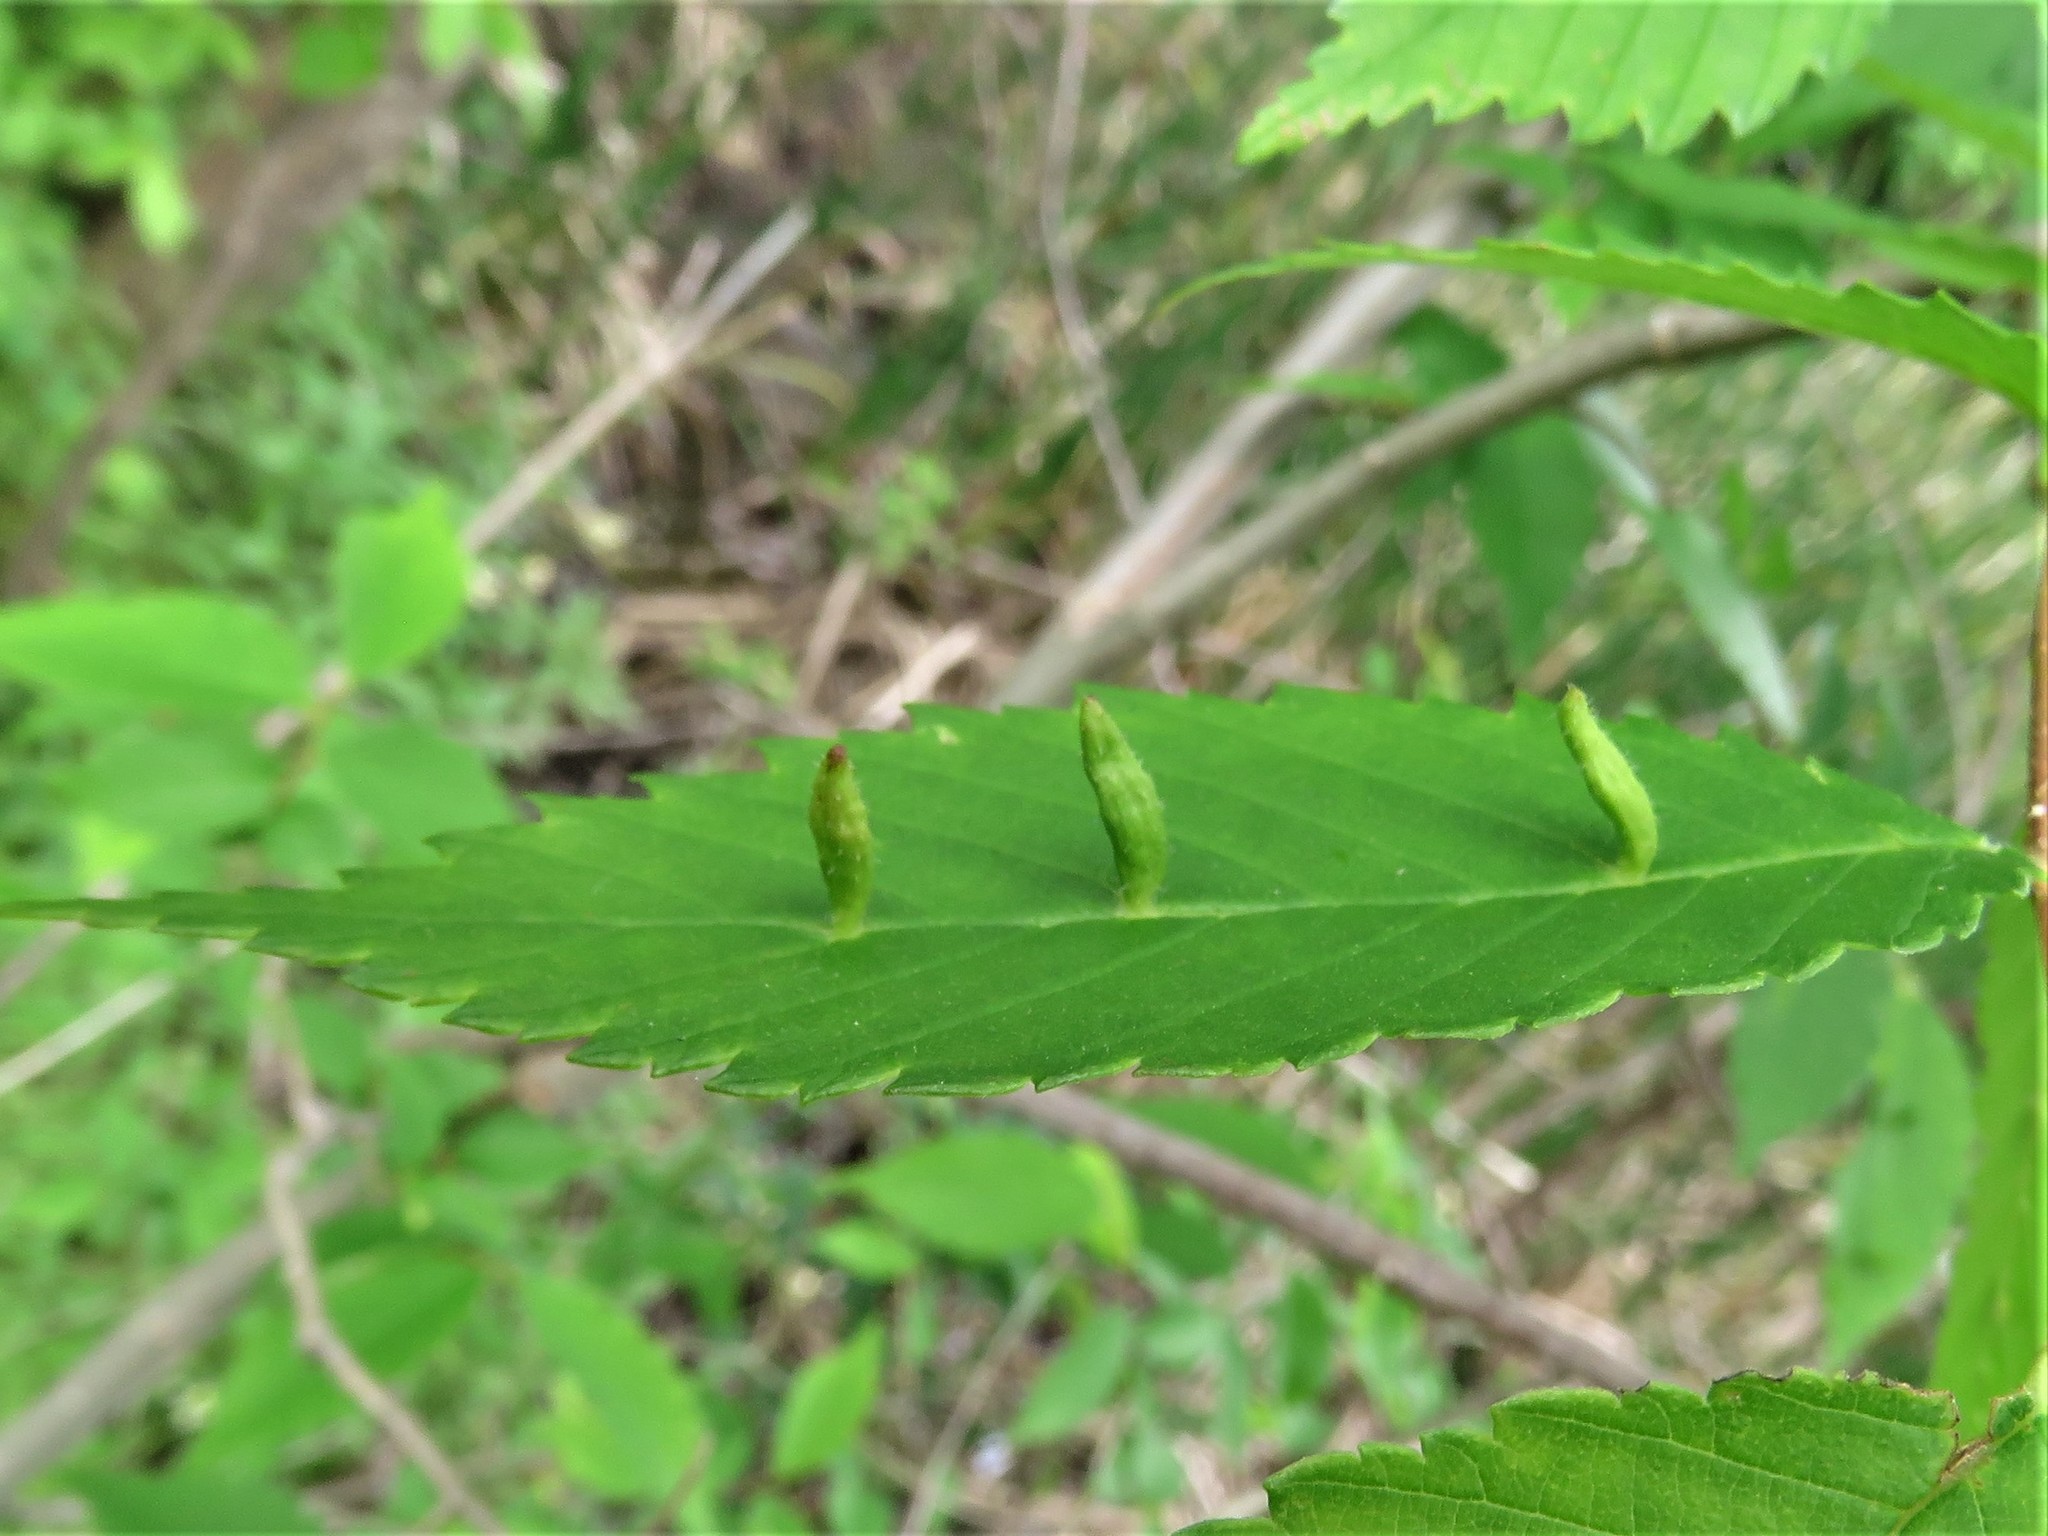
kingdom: Animalia
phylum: Arthropoda
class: Arachnida
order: Trombidiformes
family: Eriophyidae
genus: Aceria
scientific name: Aceria
